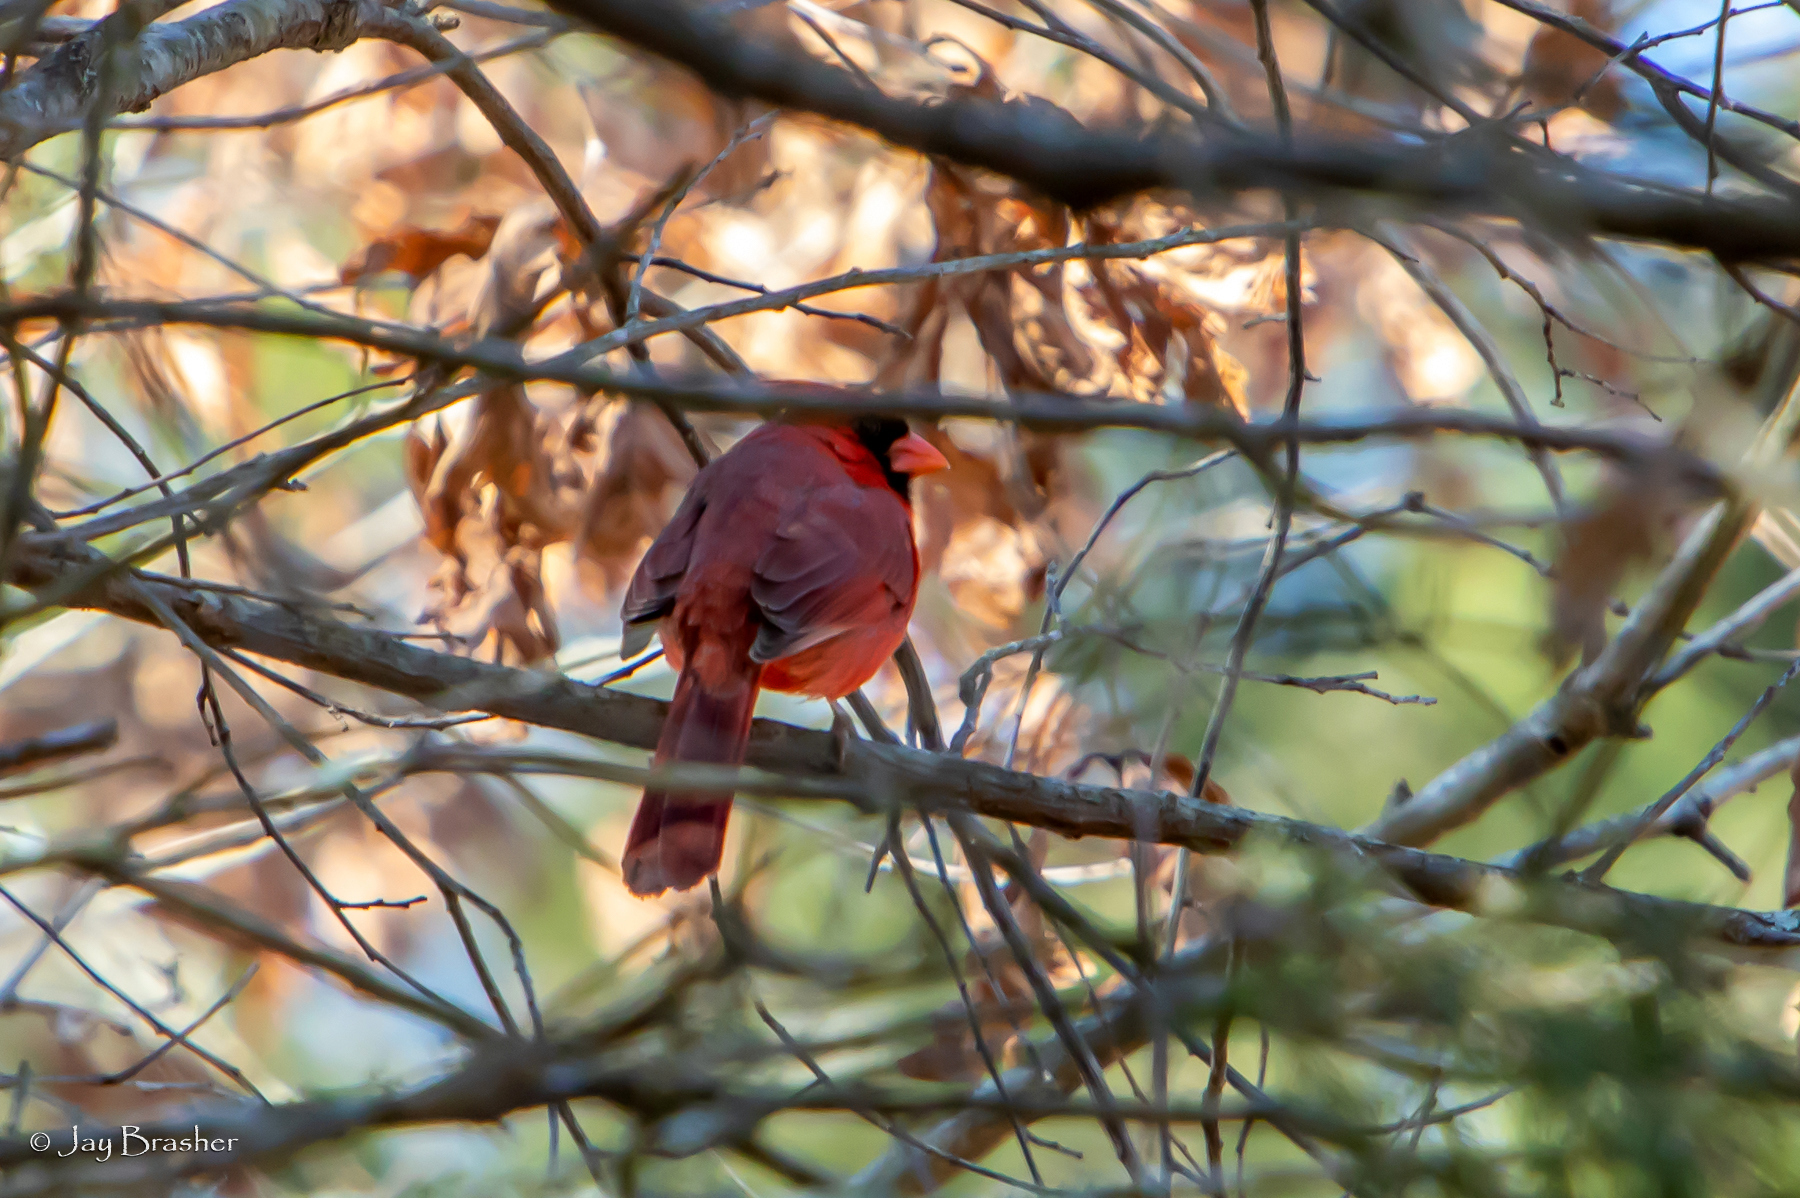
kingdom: Animalia
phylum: Chordata
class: Aves
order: Passeriformes
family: Cardinalidae
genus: Cardinalis
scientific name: Cardinalis cardinalis
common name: Northern cardinal
